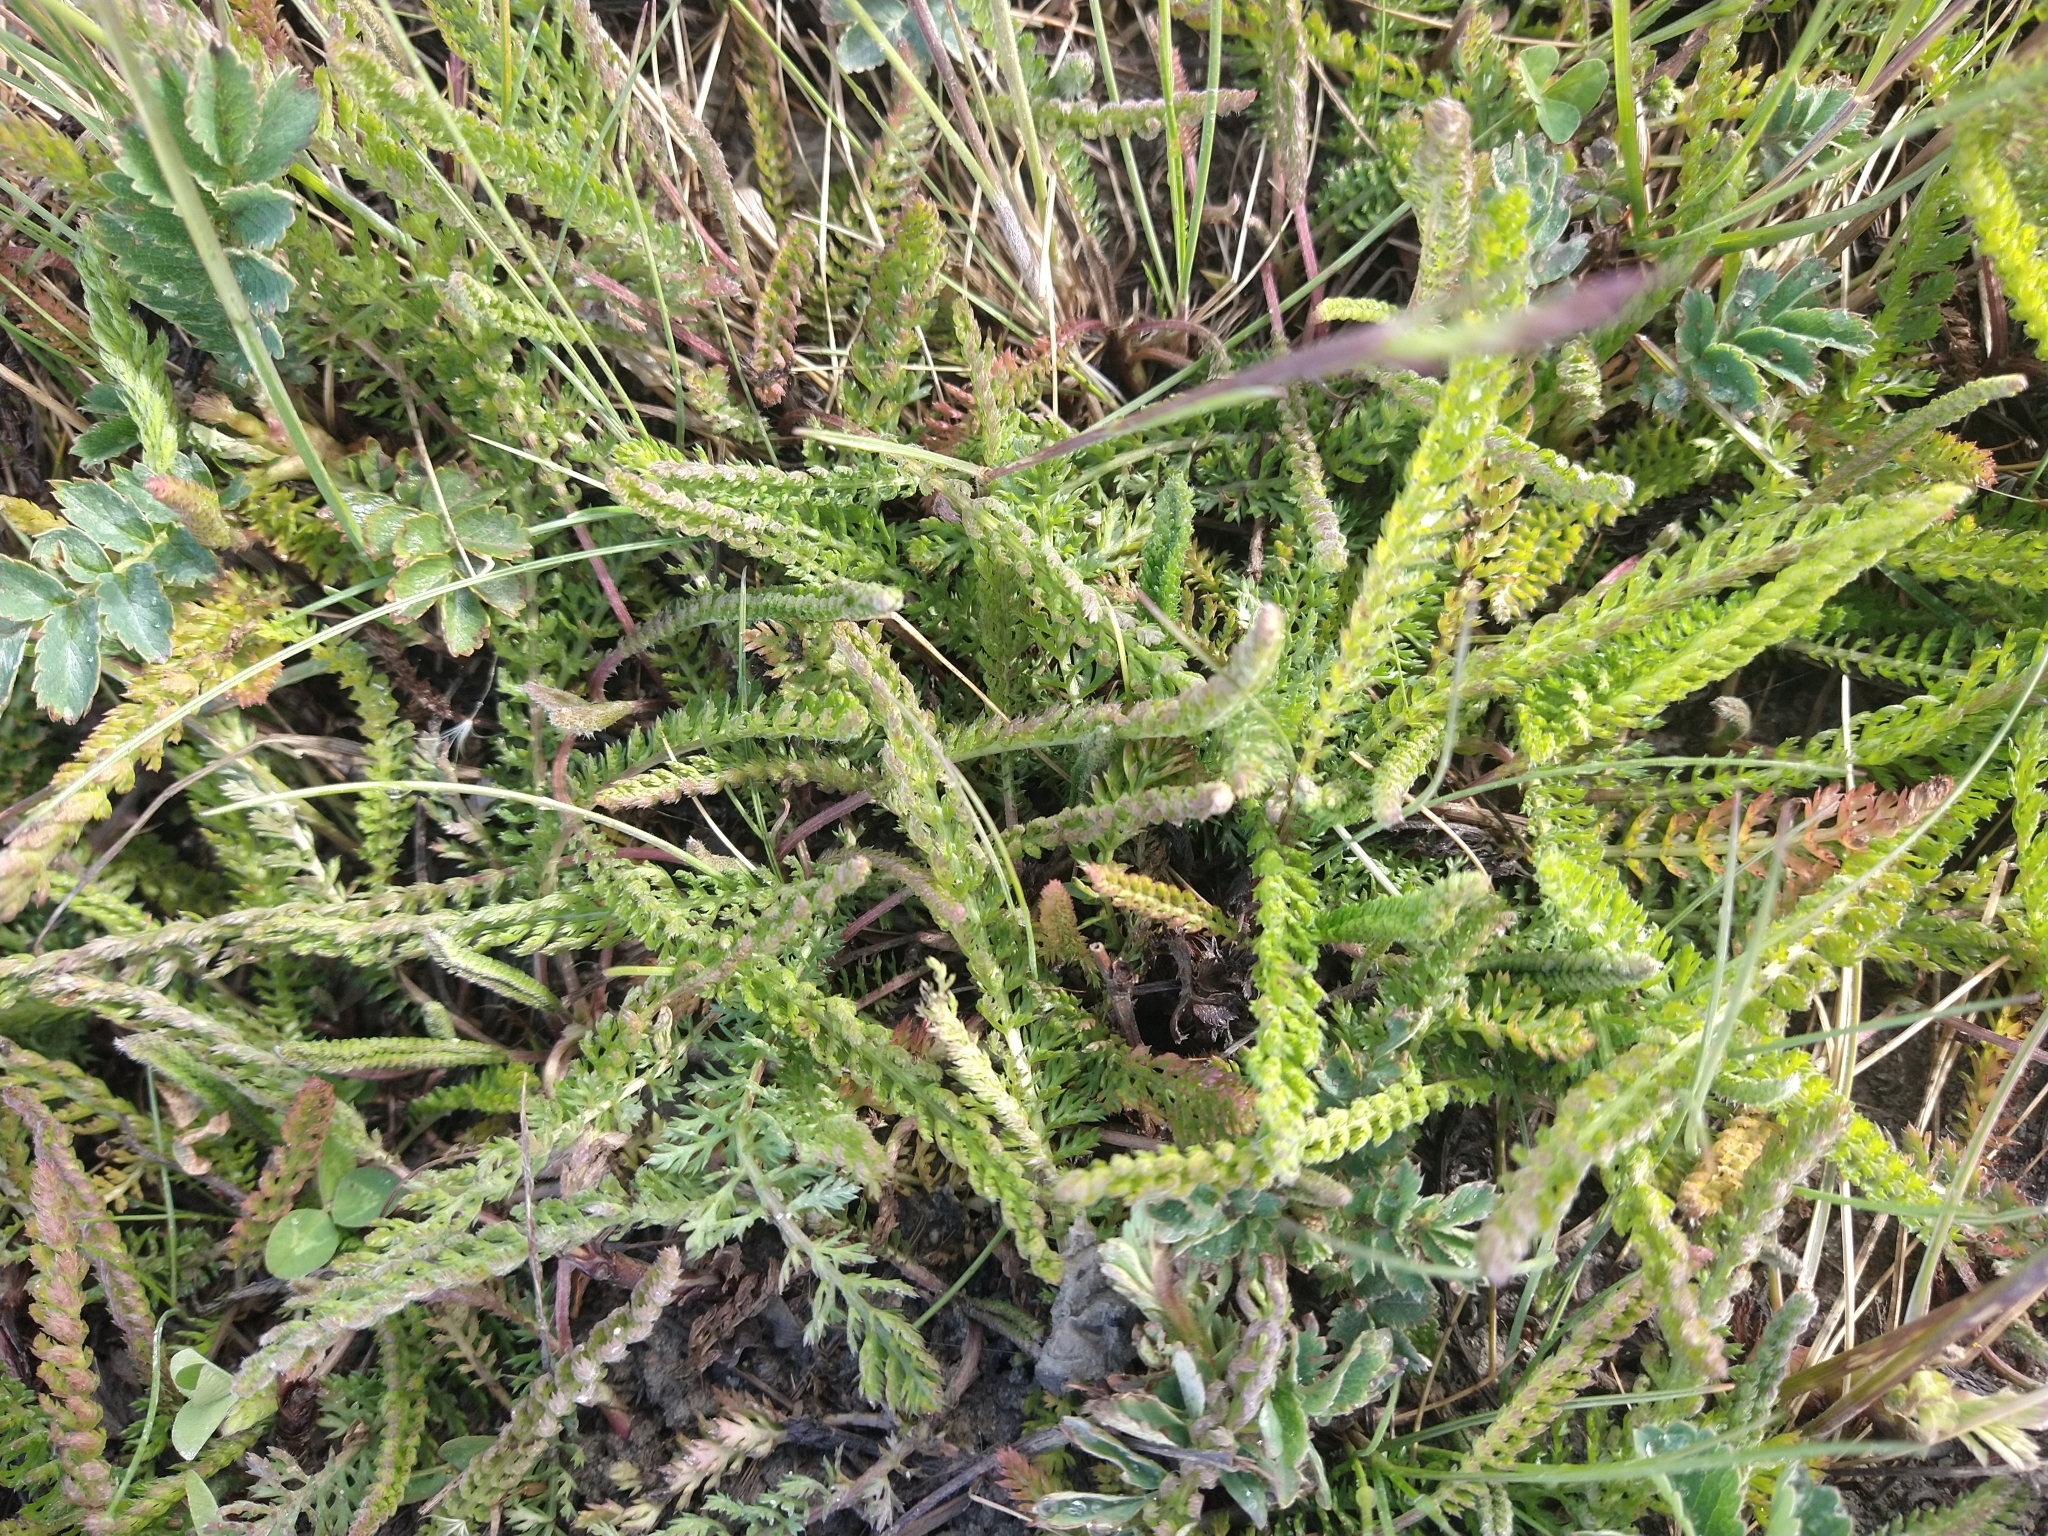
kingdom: Plantae
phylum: Tracheophyta
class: Magnoliopsida
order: Asterales
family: Asteraceae
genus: Achillea
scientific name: Achillea millefolium
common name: Yarrow
